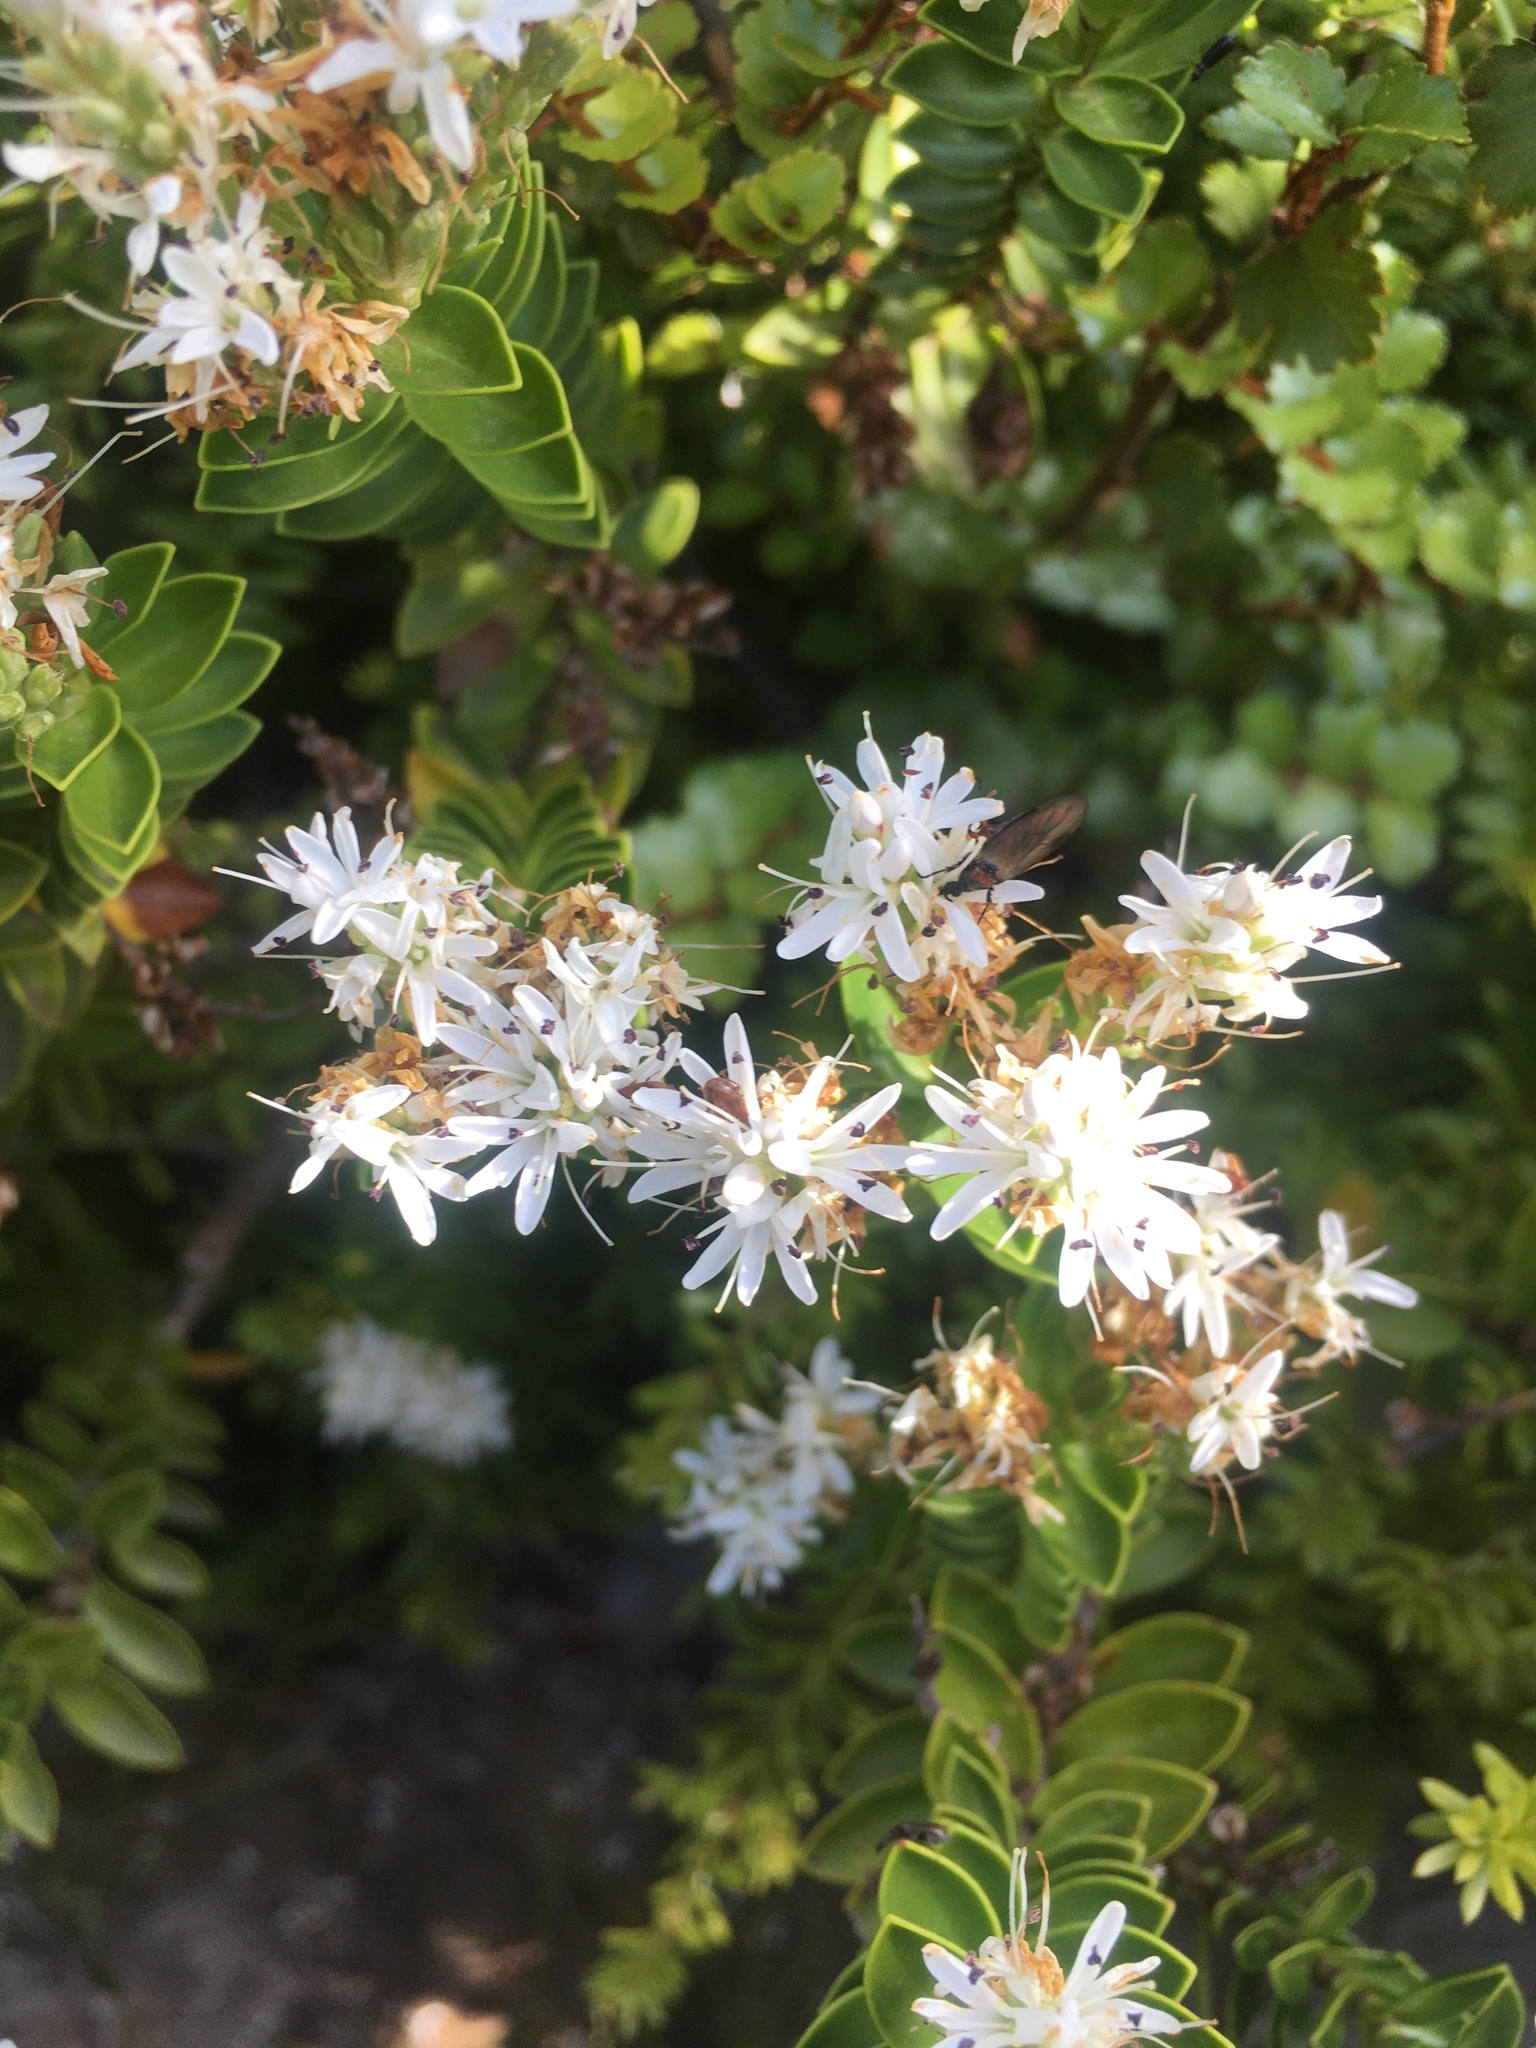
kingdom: Plantae
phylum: Tracheophyta
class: Magnoliopsida
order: Lamiales
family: Plantaginaceae
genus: Veronica
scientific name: Veronica treadwellii
